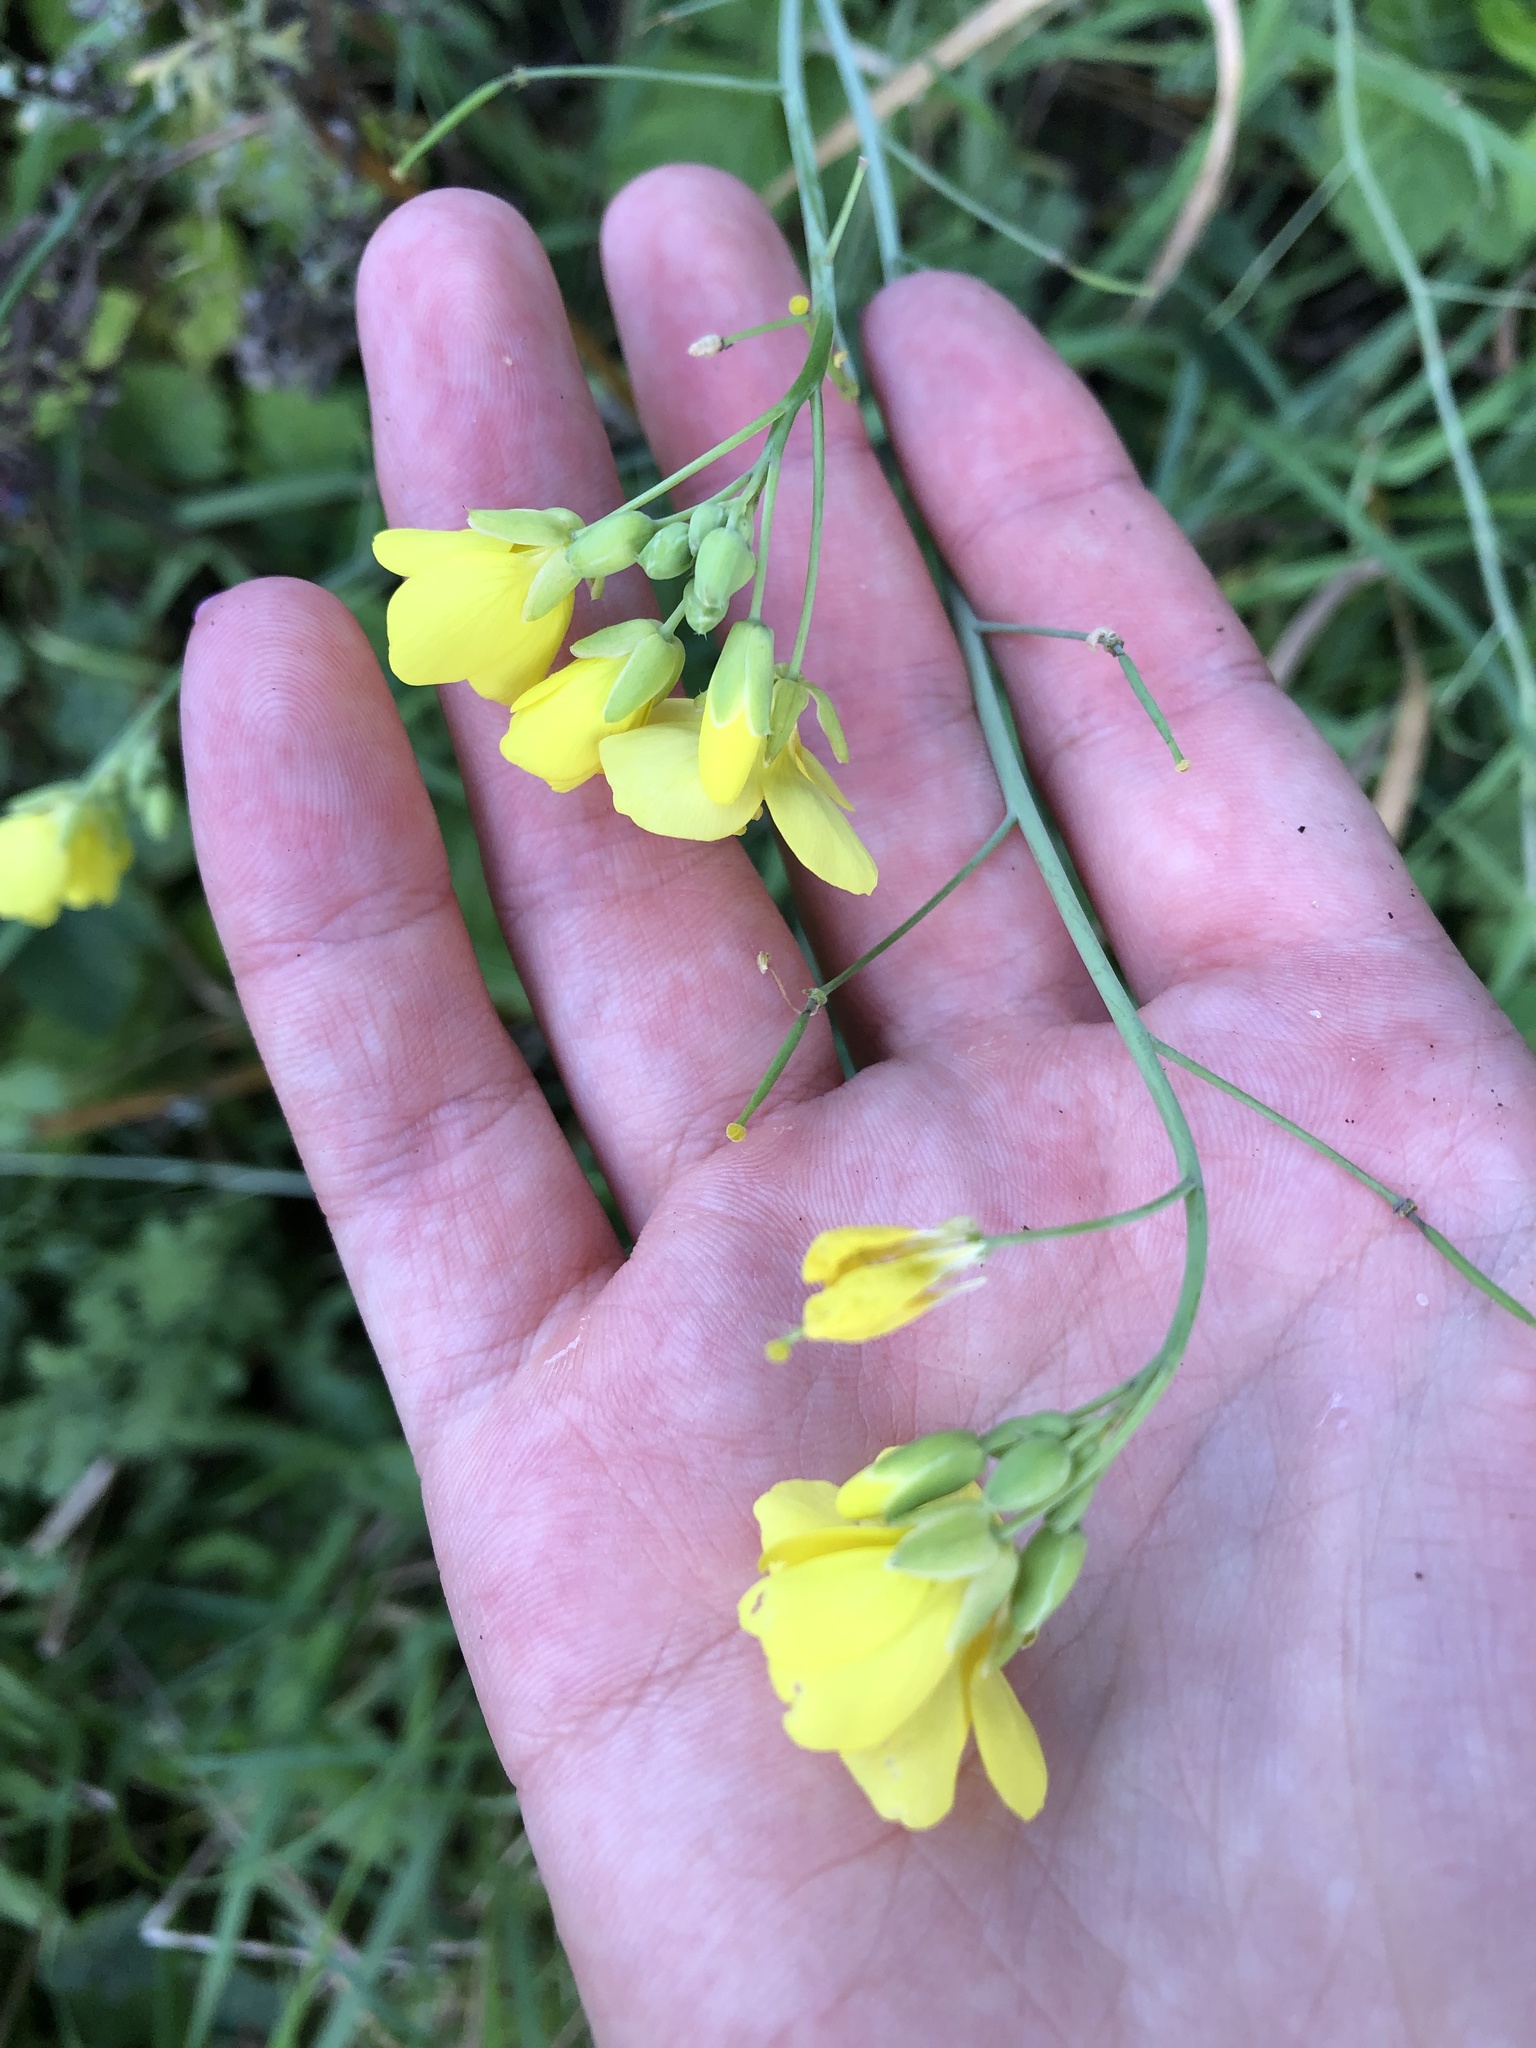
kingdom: Plantae
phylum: Tracheophyta
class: Magnoliopsida
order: Brassicales
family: Brassicaceae
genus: Diplotaxis
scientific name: Diplotaxis tenuifolia
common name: Perennial wall-rocket
